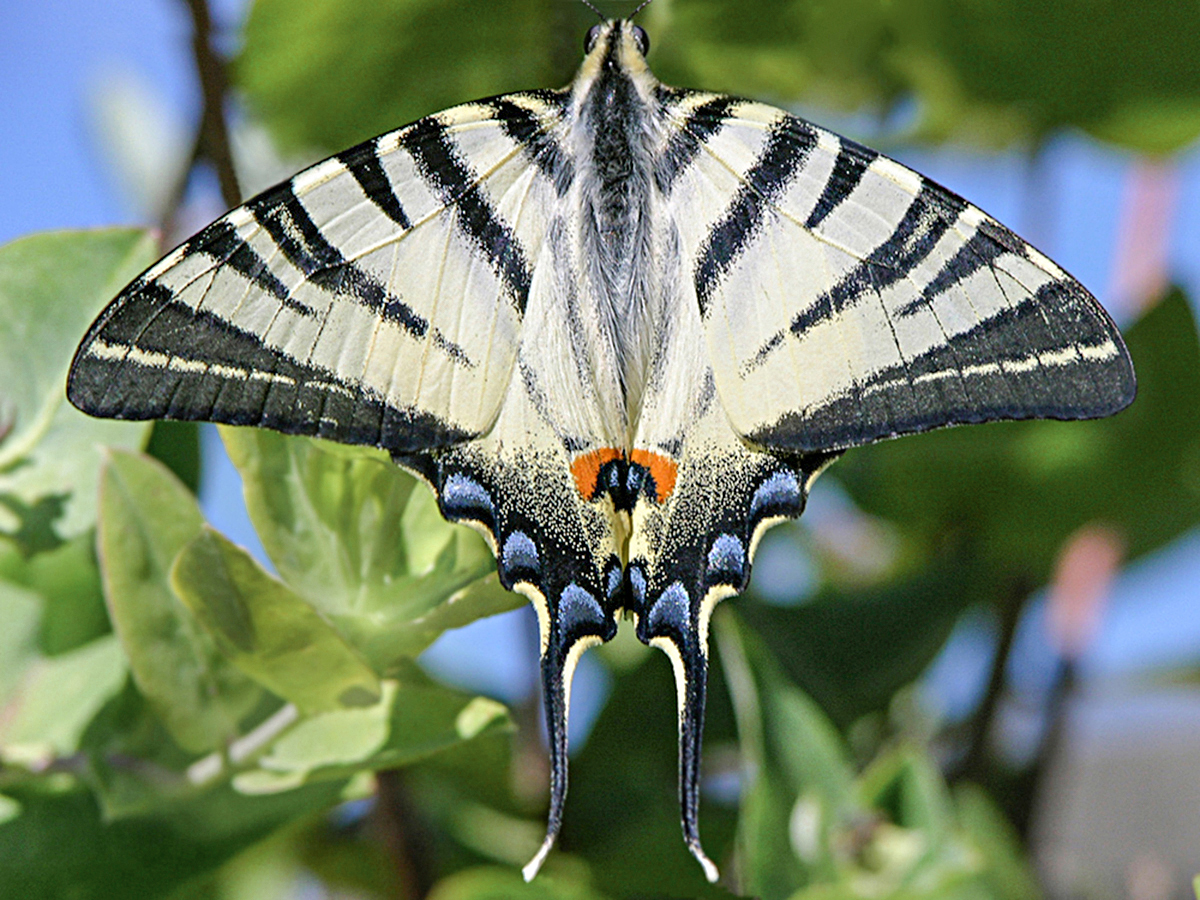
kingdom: Animalia
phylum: Arthropoda
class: Insecta
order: Lepidoptera
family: Papilionidae
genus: Iphiclides
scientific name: Iphiclides podalirius
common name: Scarce swallowtail
